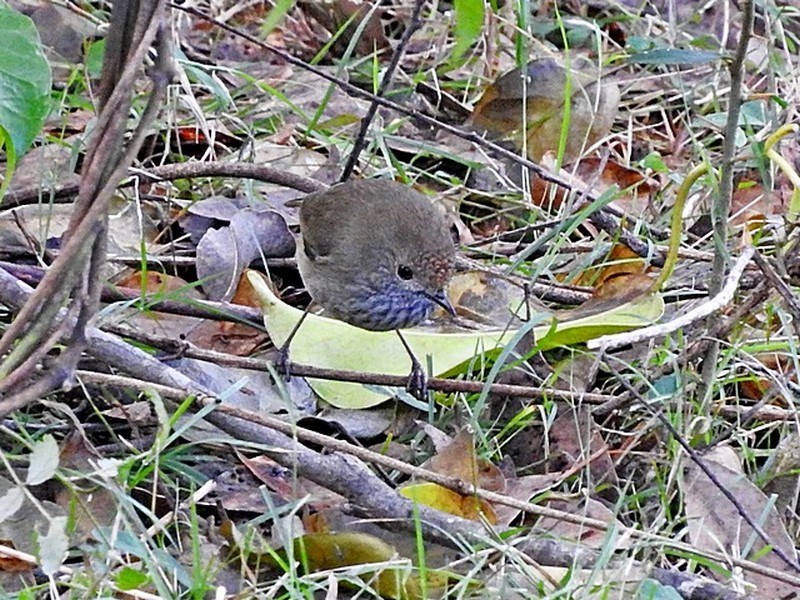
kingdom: Animalia
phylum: Chordata
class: Aves
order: Passeriformes
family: Acanthizidae
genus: Acanthiza
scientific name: Acanthiza pusilla
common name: Brown thornbill
